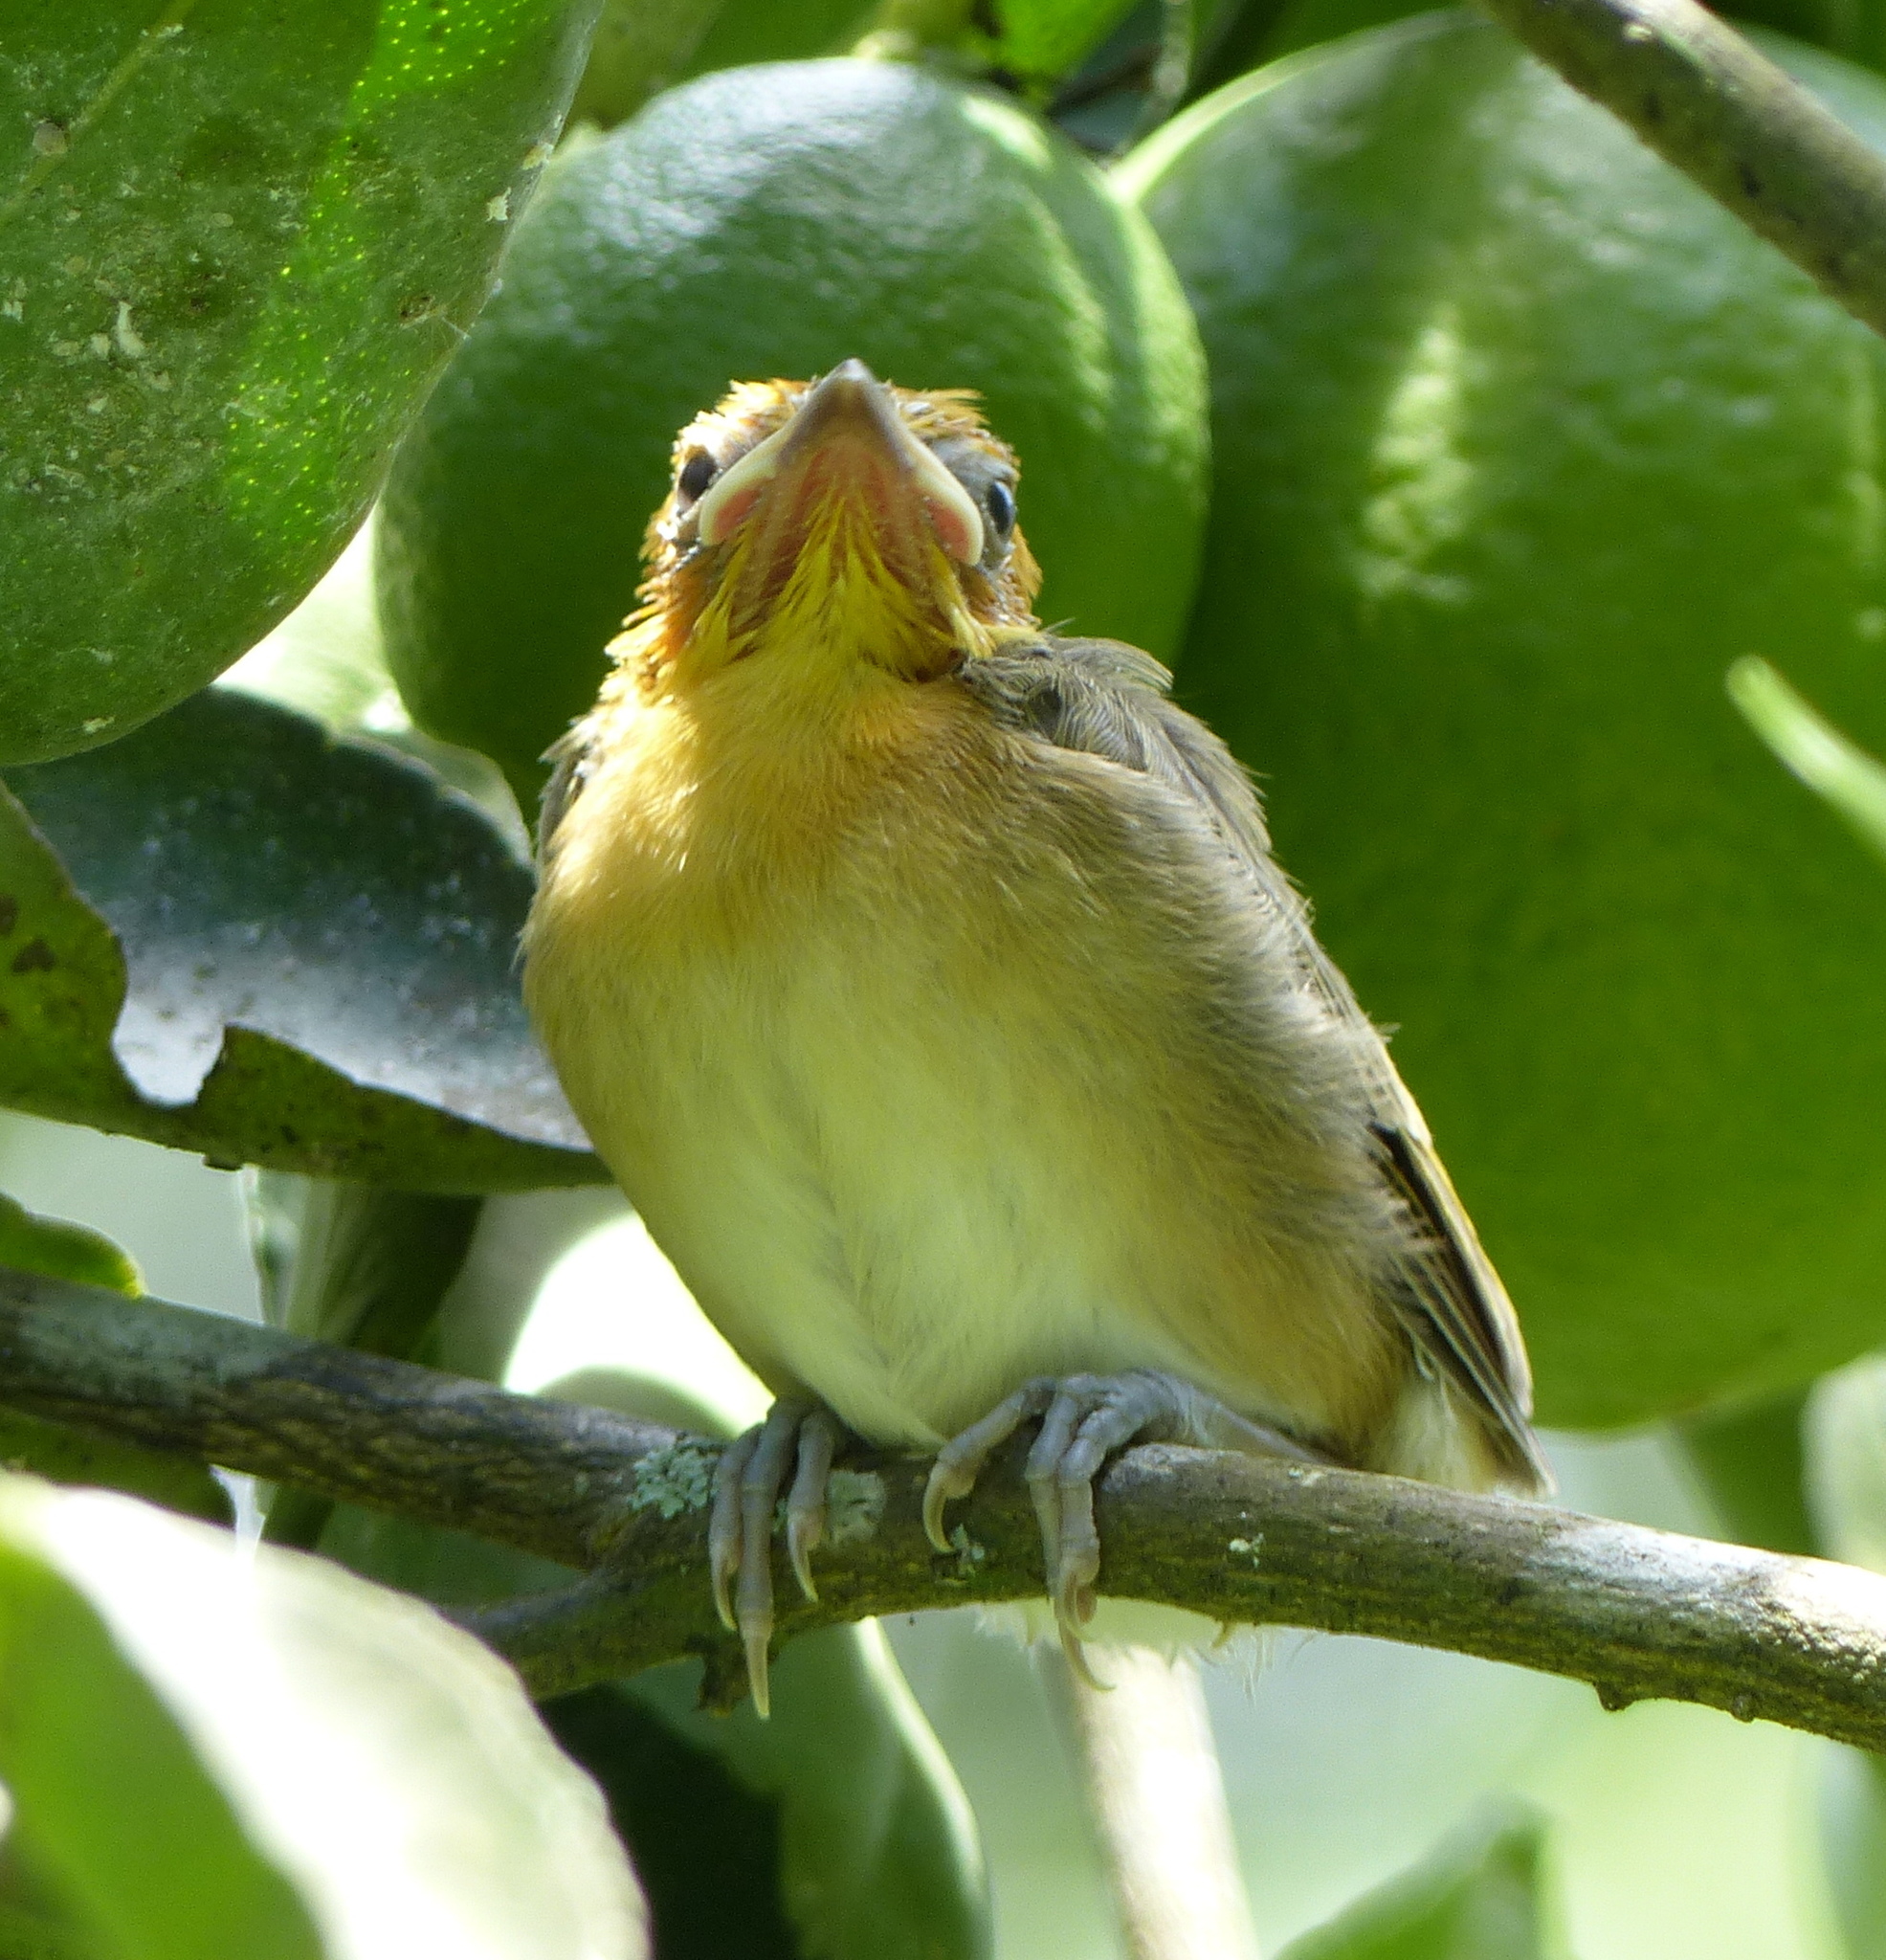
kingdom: Animalia
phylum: Chordata
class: Aves
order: Passeriformes
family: Thraupidae
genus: Thlypopsis
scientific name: Thlypopsis sordida
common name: Orange-headed tanager
